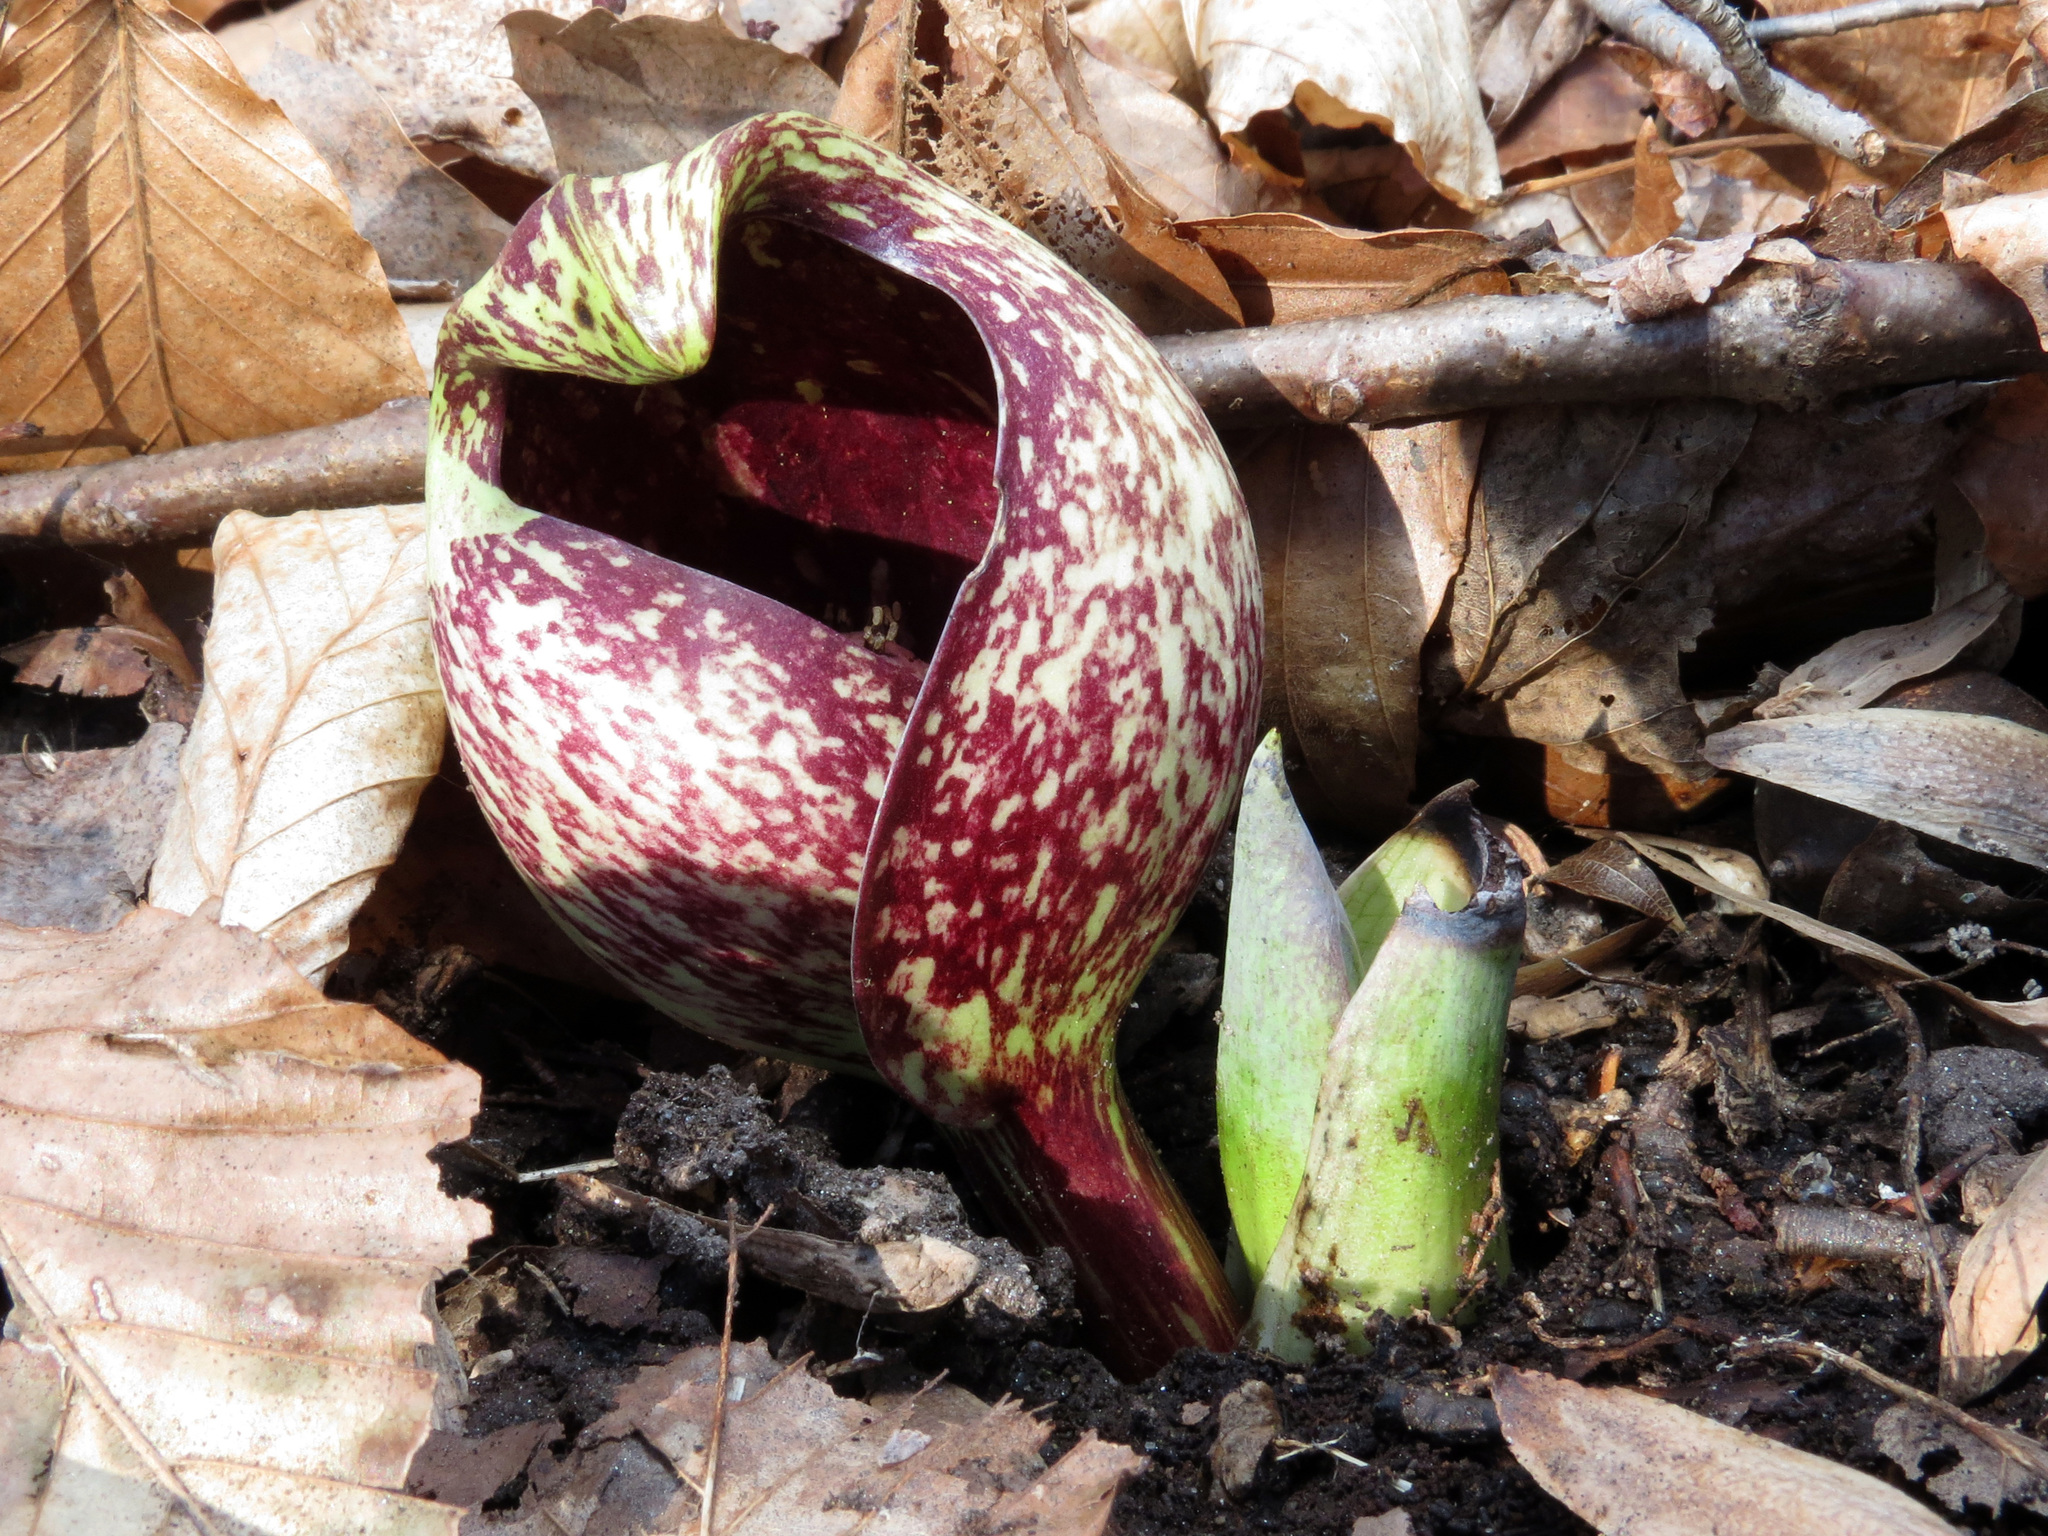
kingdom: Plantae
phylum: Tracheophyta
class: Liliopsida
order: Alismatales
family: Araceae
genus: Symplocarpus
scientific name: Symplocarpus foetidus
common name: Eastern skunk cabbage
